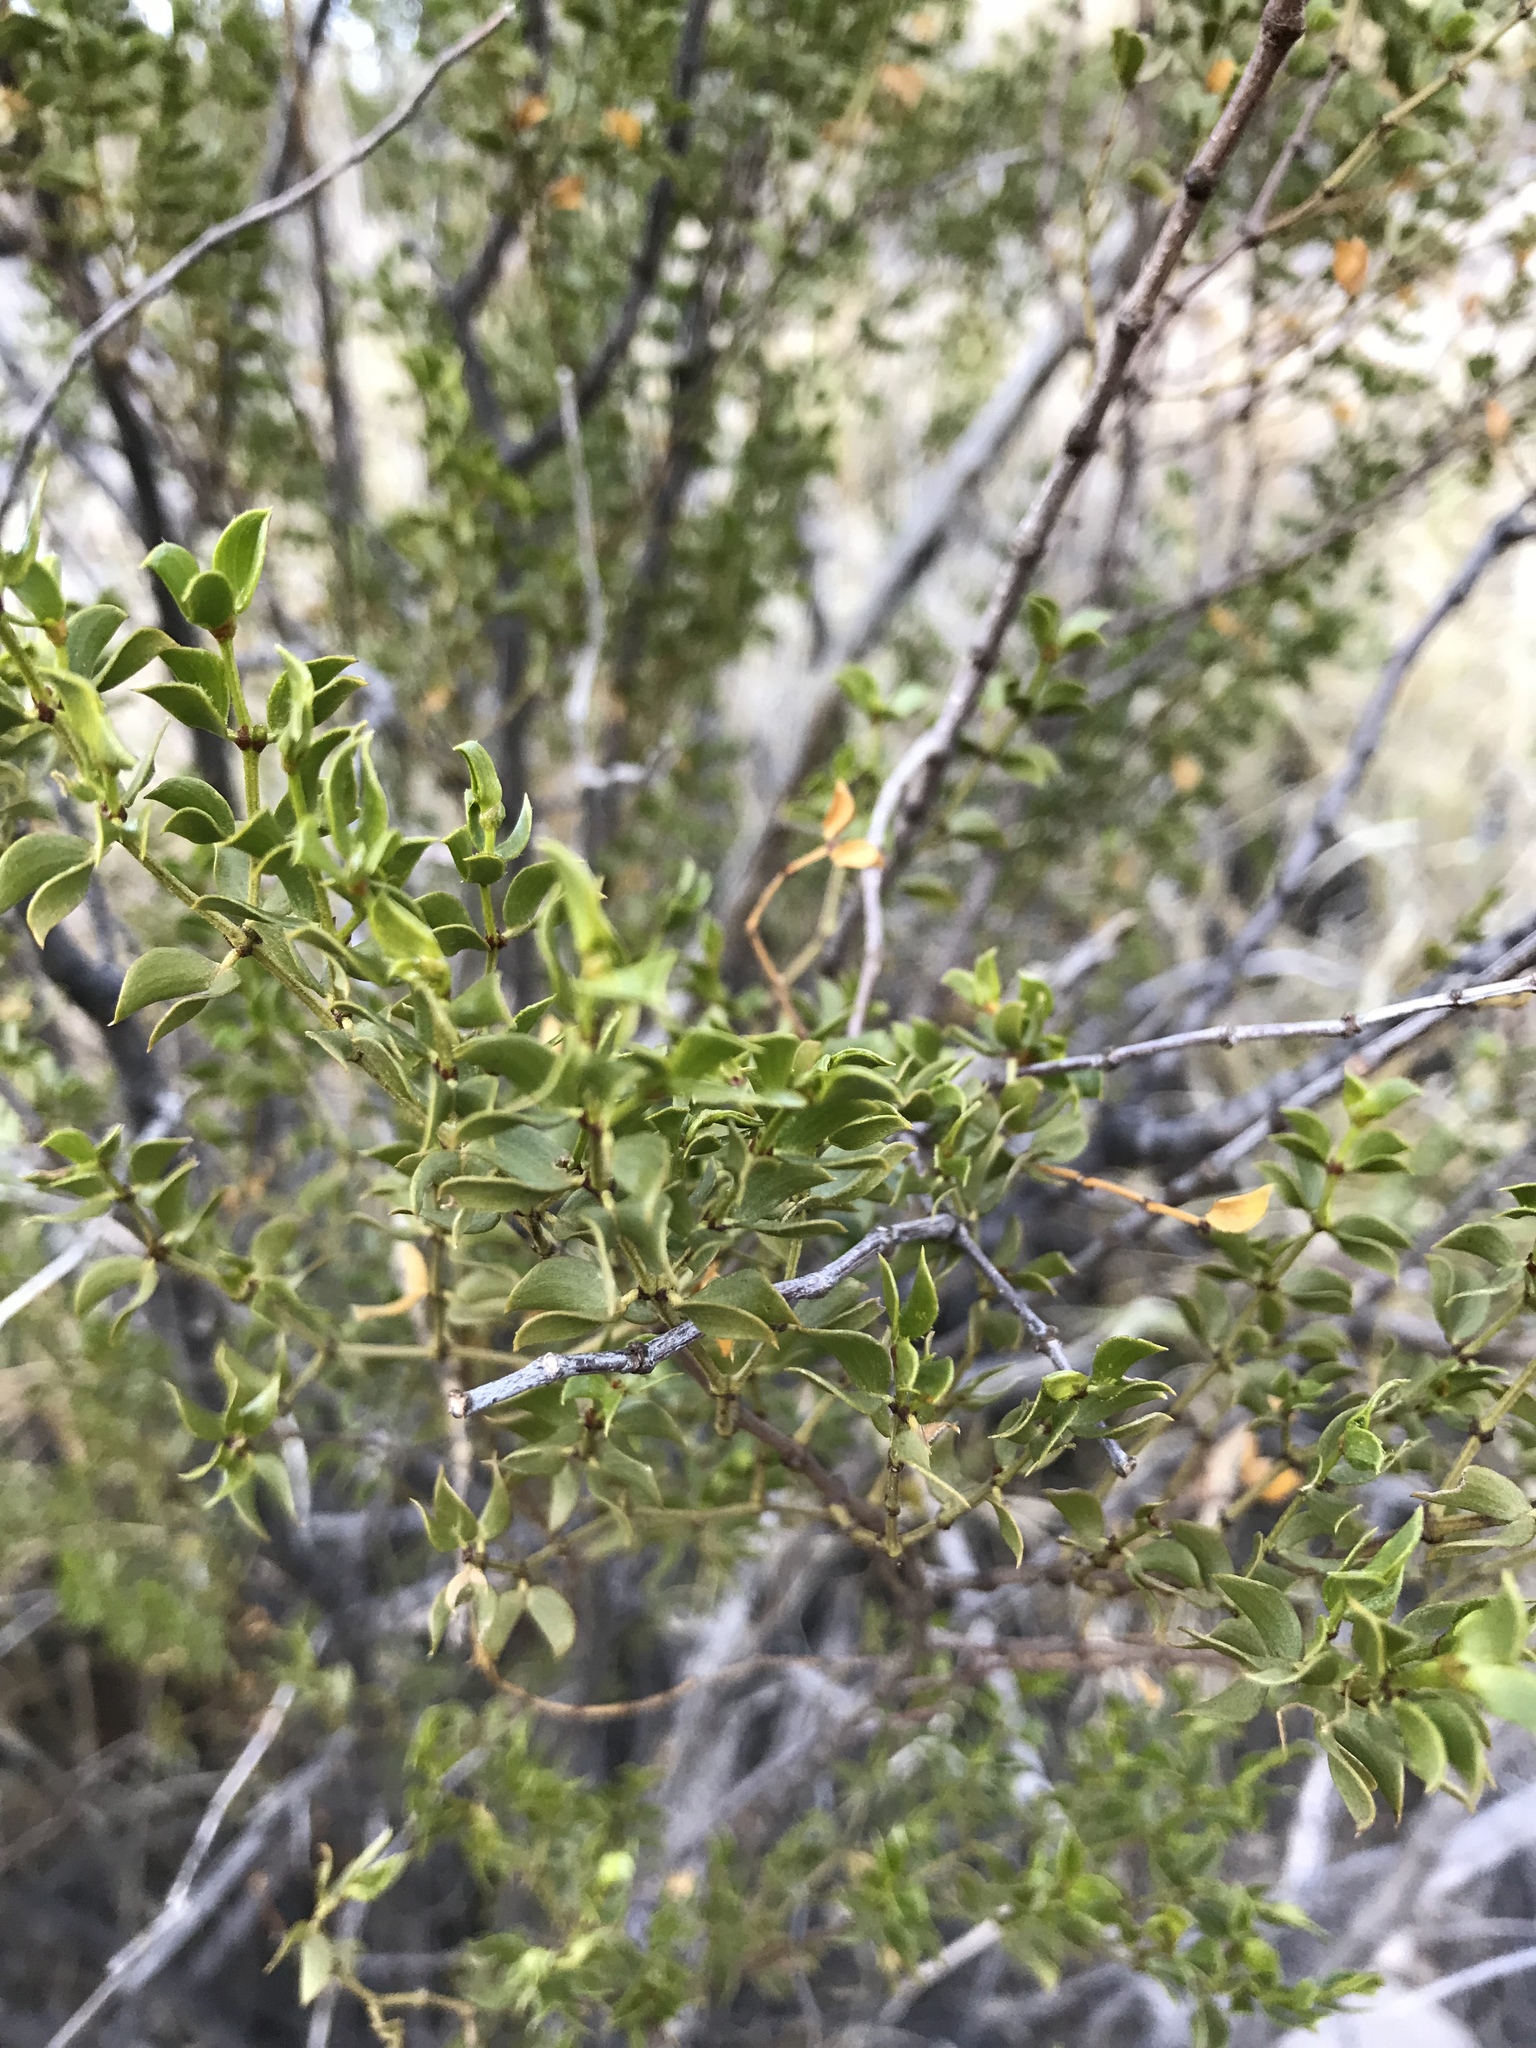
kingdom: Plantae
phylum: Tracheophyta
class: Magnoliopsida
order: Zygophyllales
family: Zygophyllaceae
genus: Larrea
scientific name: Larrea tridentata
